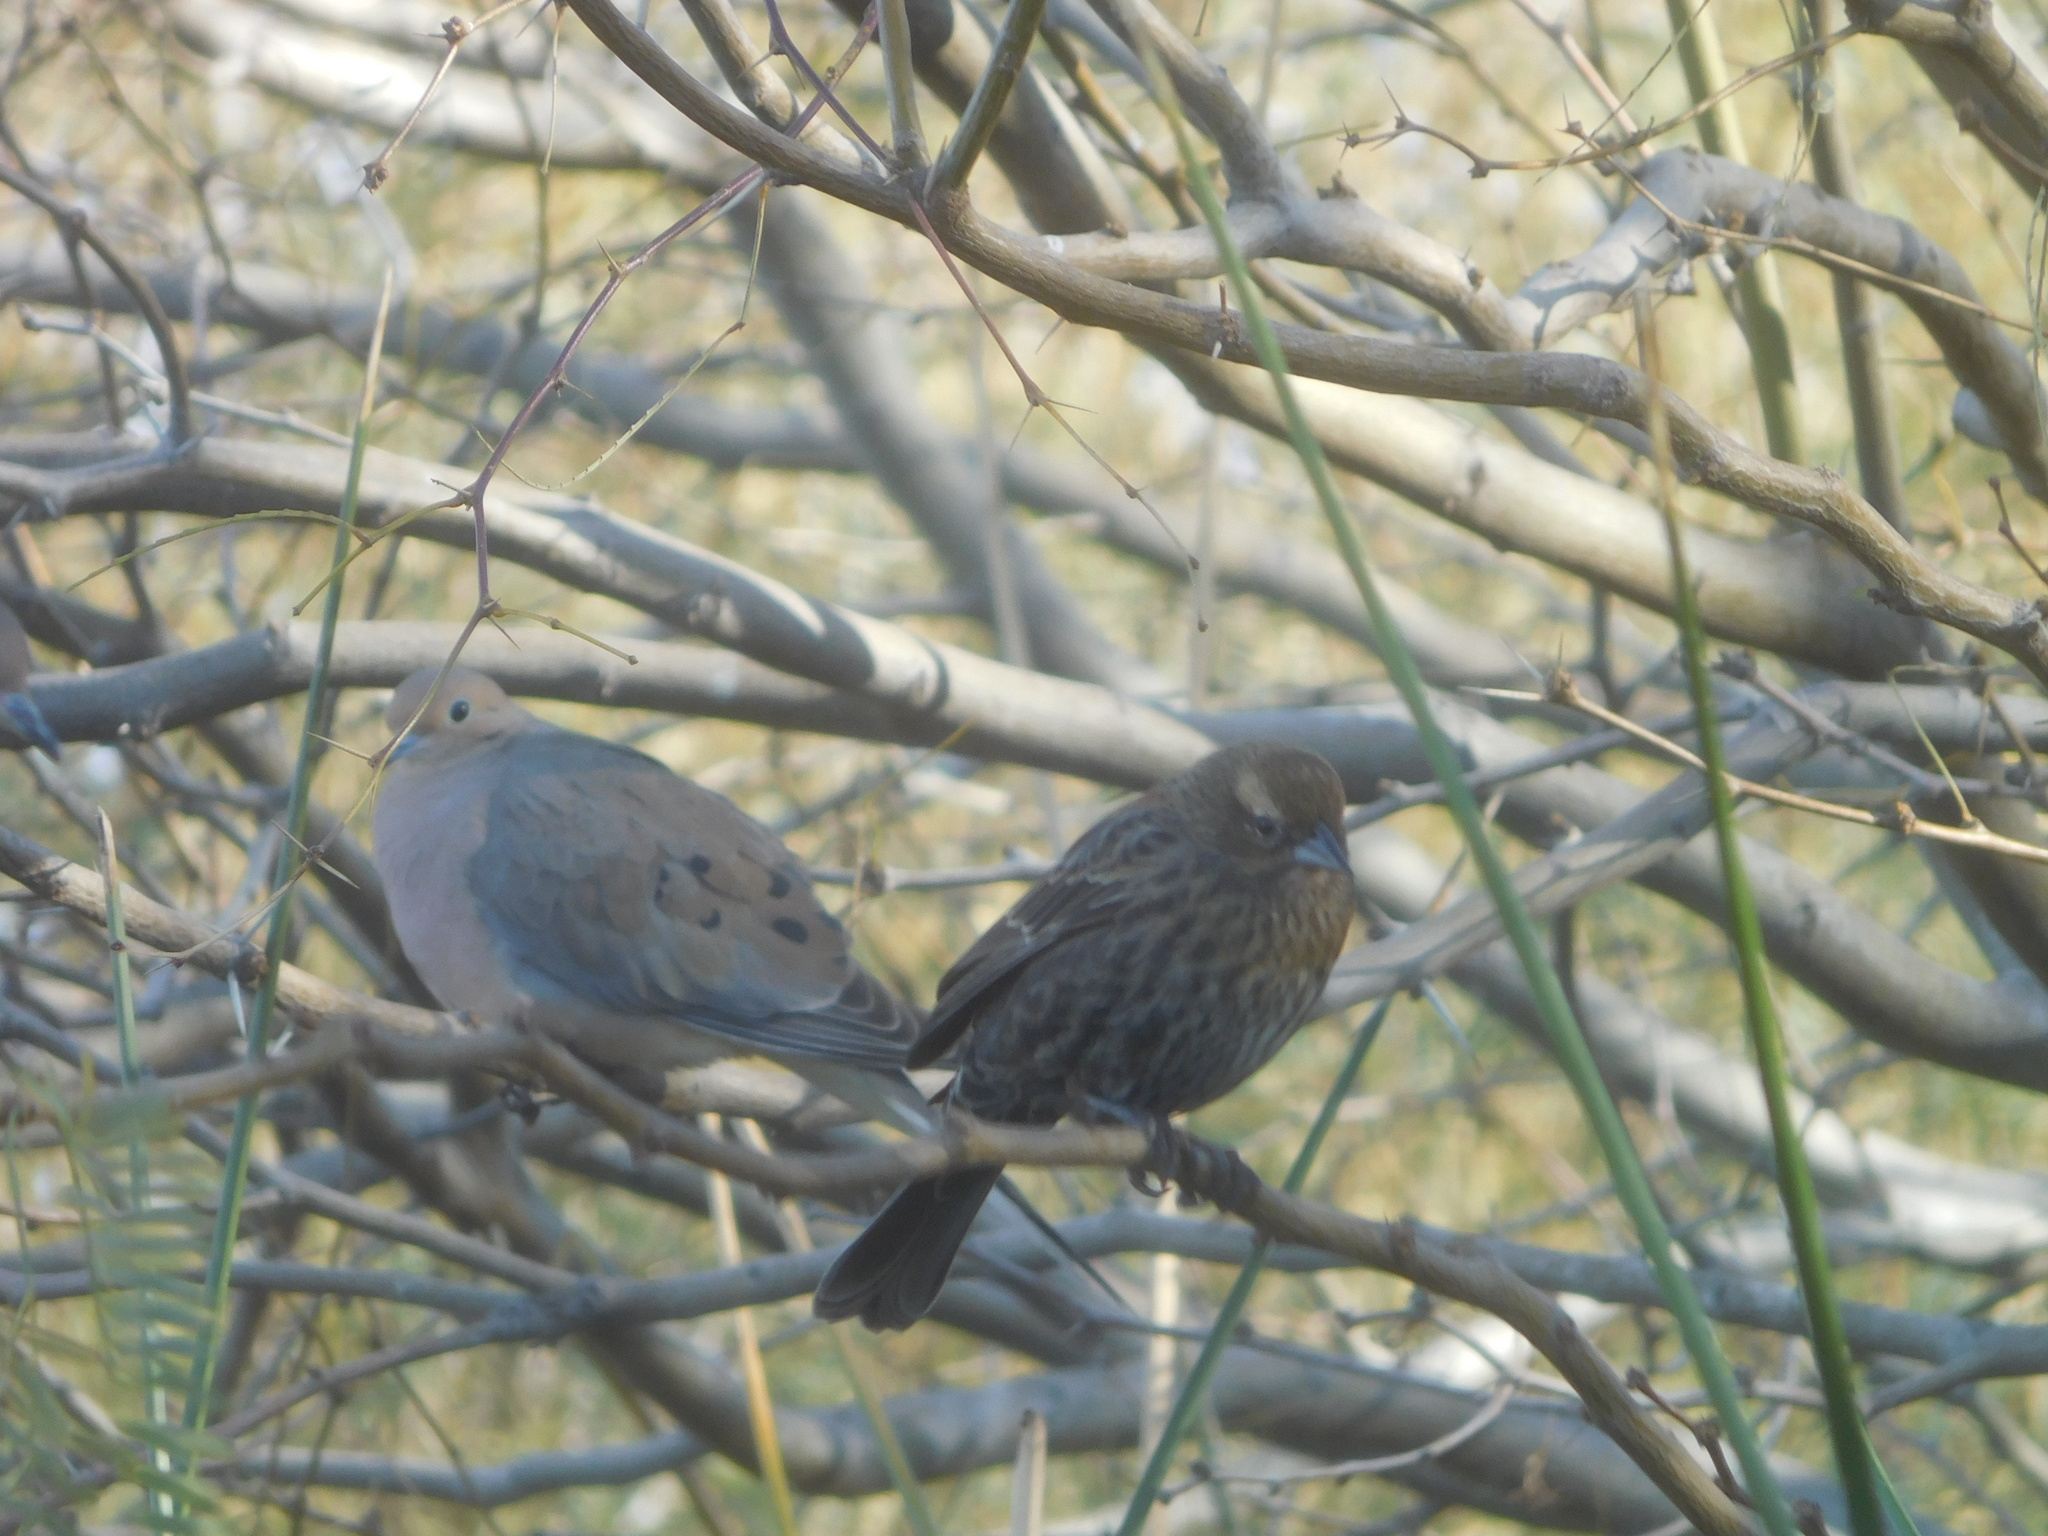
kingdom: Animalia
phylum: Chordata
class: Aves
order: Passeriformes
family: Icteridae
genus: Agelaius
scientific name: Agelaius phoeniceus
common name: Red-winged blackbird
